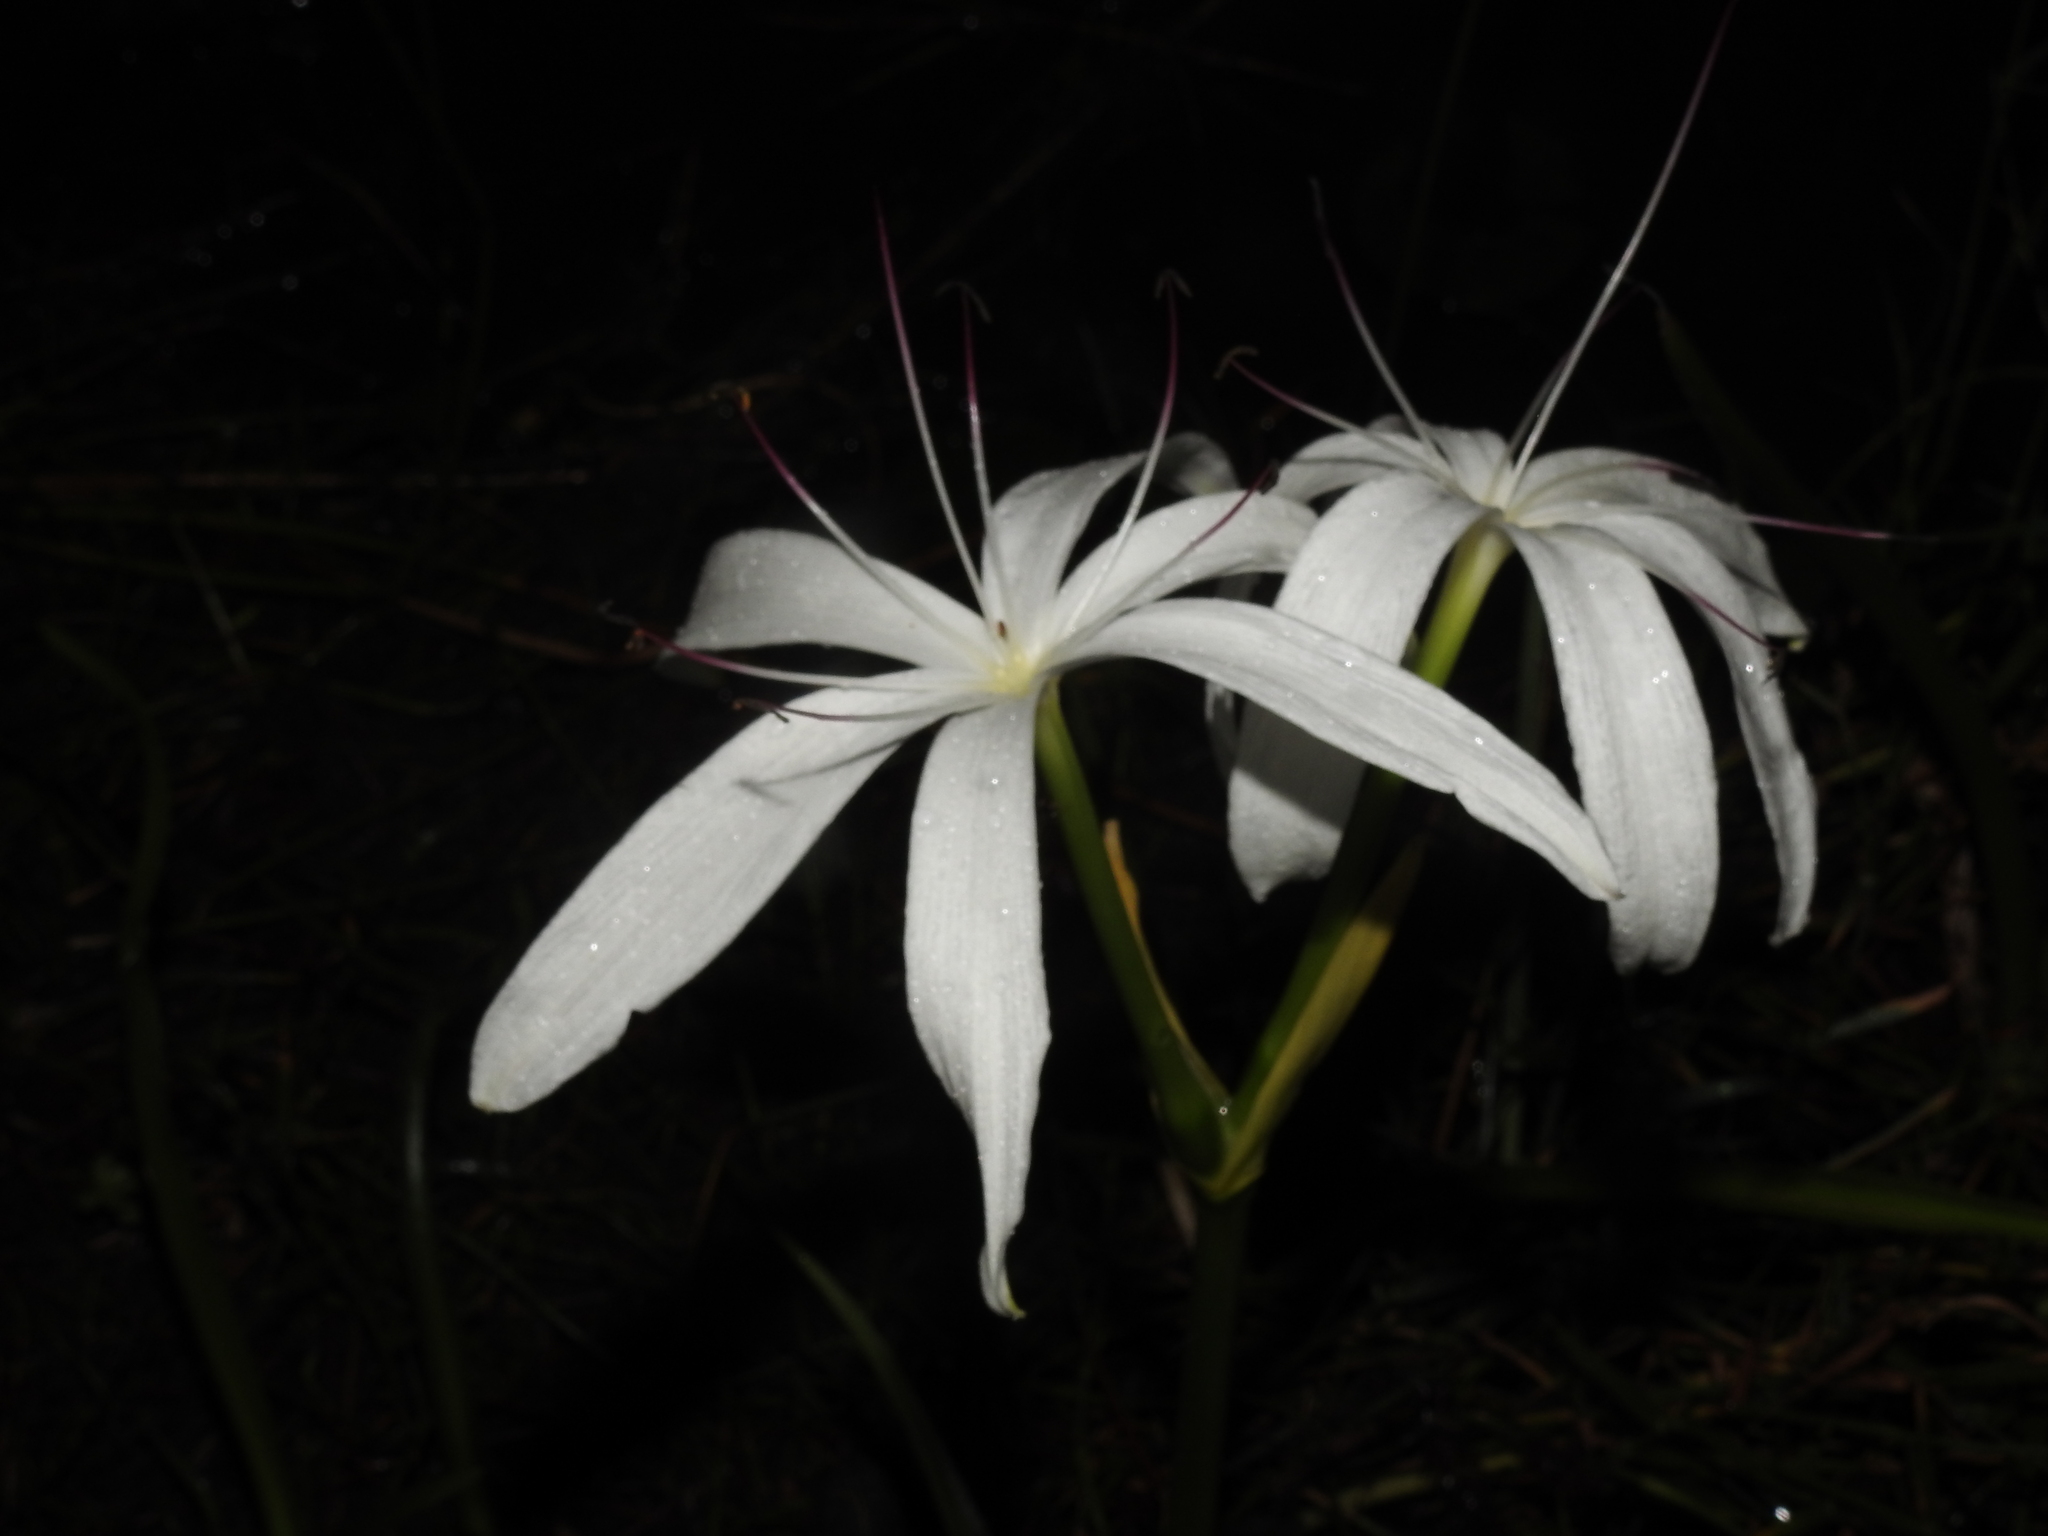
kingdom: Plantae
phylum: Tracheophyta
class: Liliopsida
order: Asparagales
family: Amaryllidaceae
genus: Crinum
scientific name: Crinum americanum
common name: Florida swamp-lily
